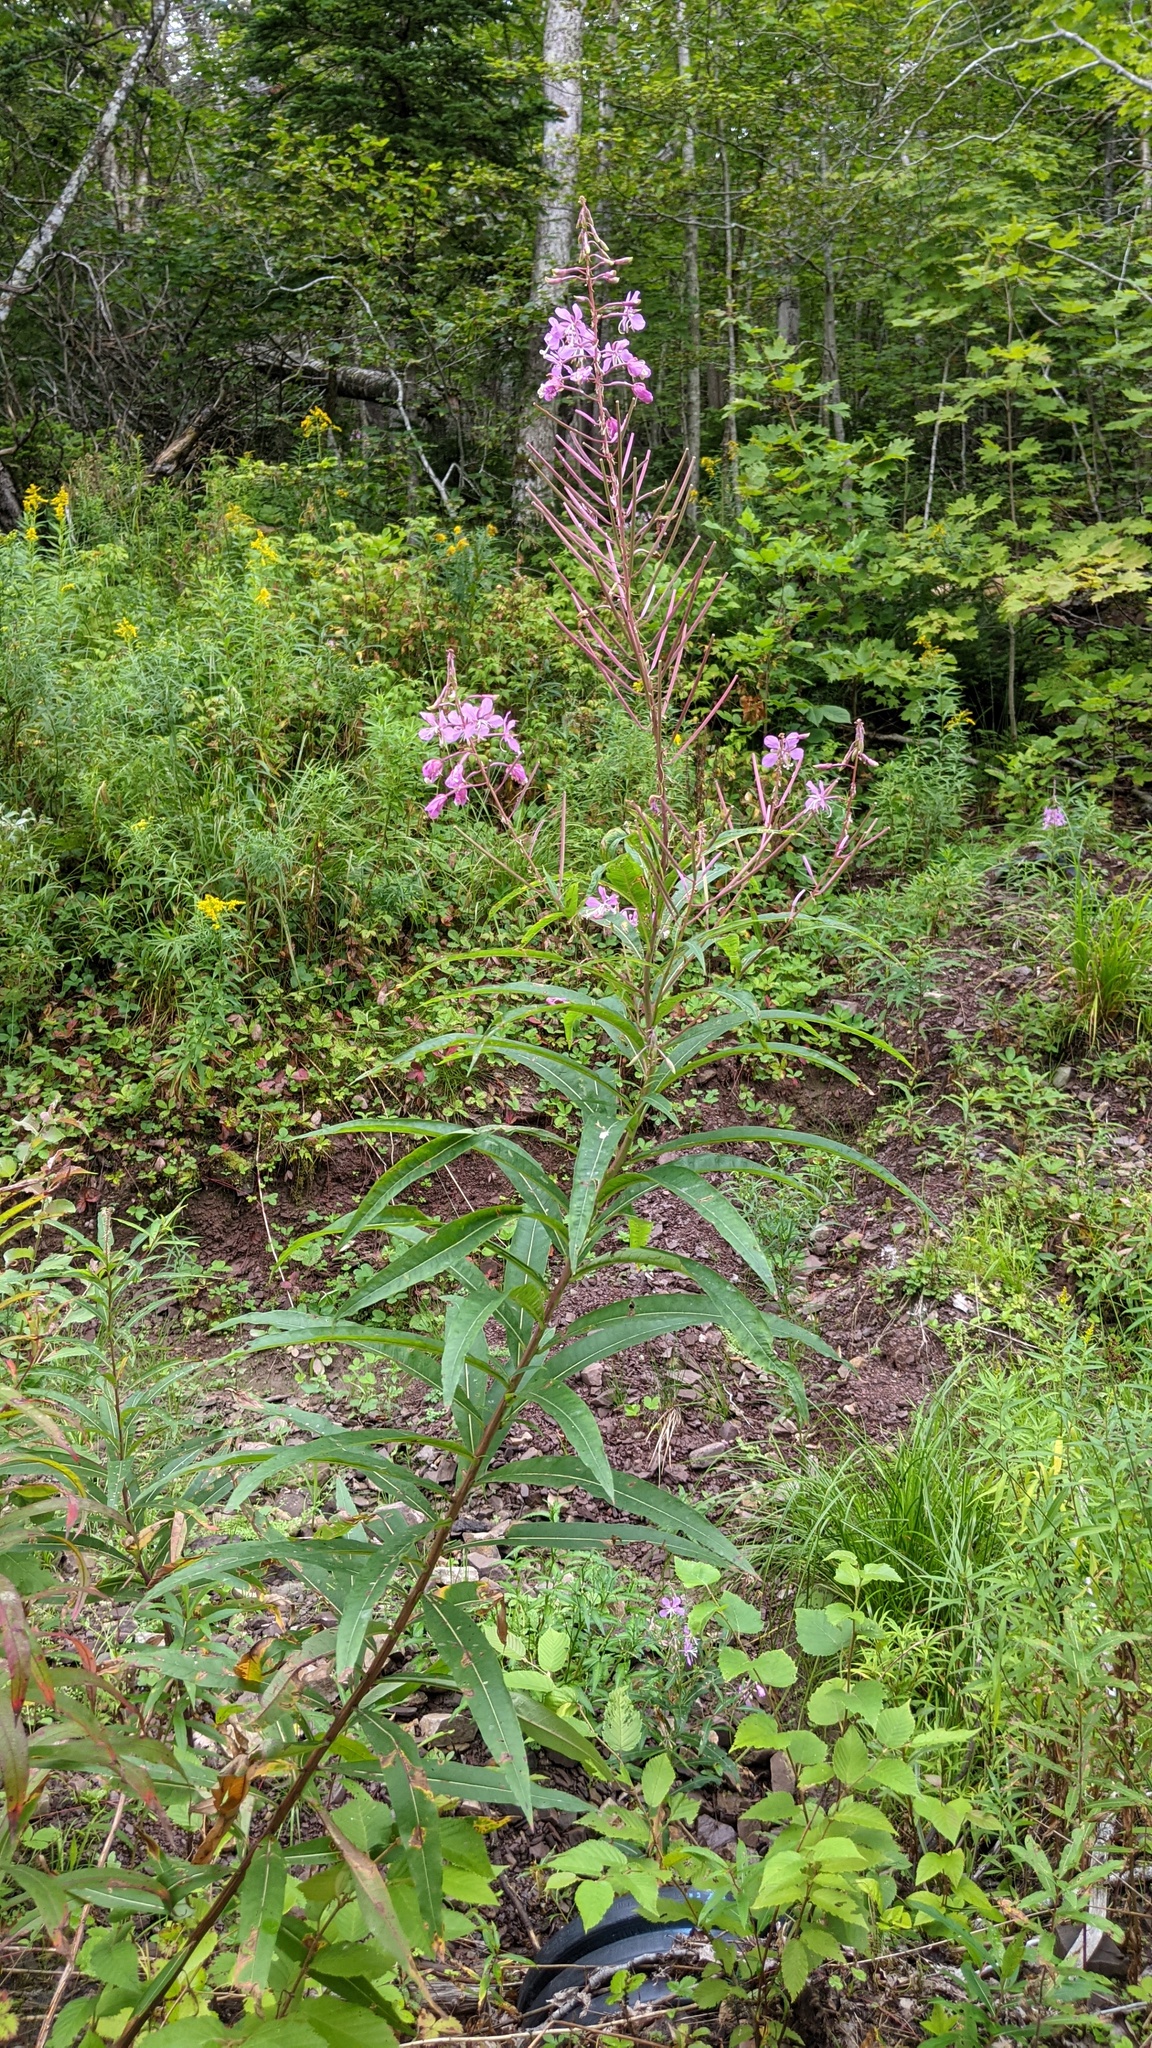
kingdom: Plantae
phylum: Tracheophyta
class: Magnoliopsida
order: Myrtales
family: Onagraceae
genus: Chamaenerion
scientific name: Chamaenerion angustifolium
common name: Fireweed
